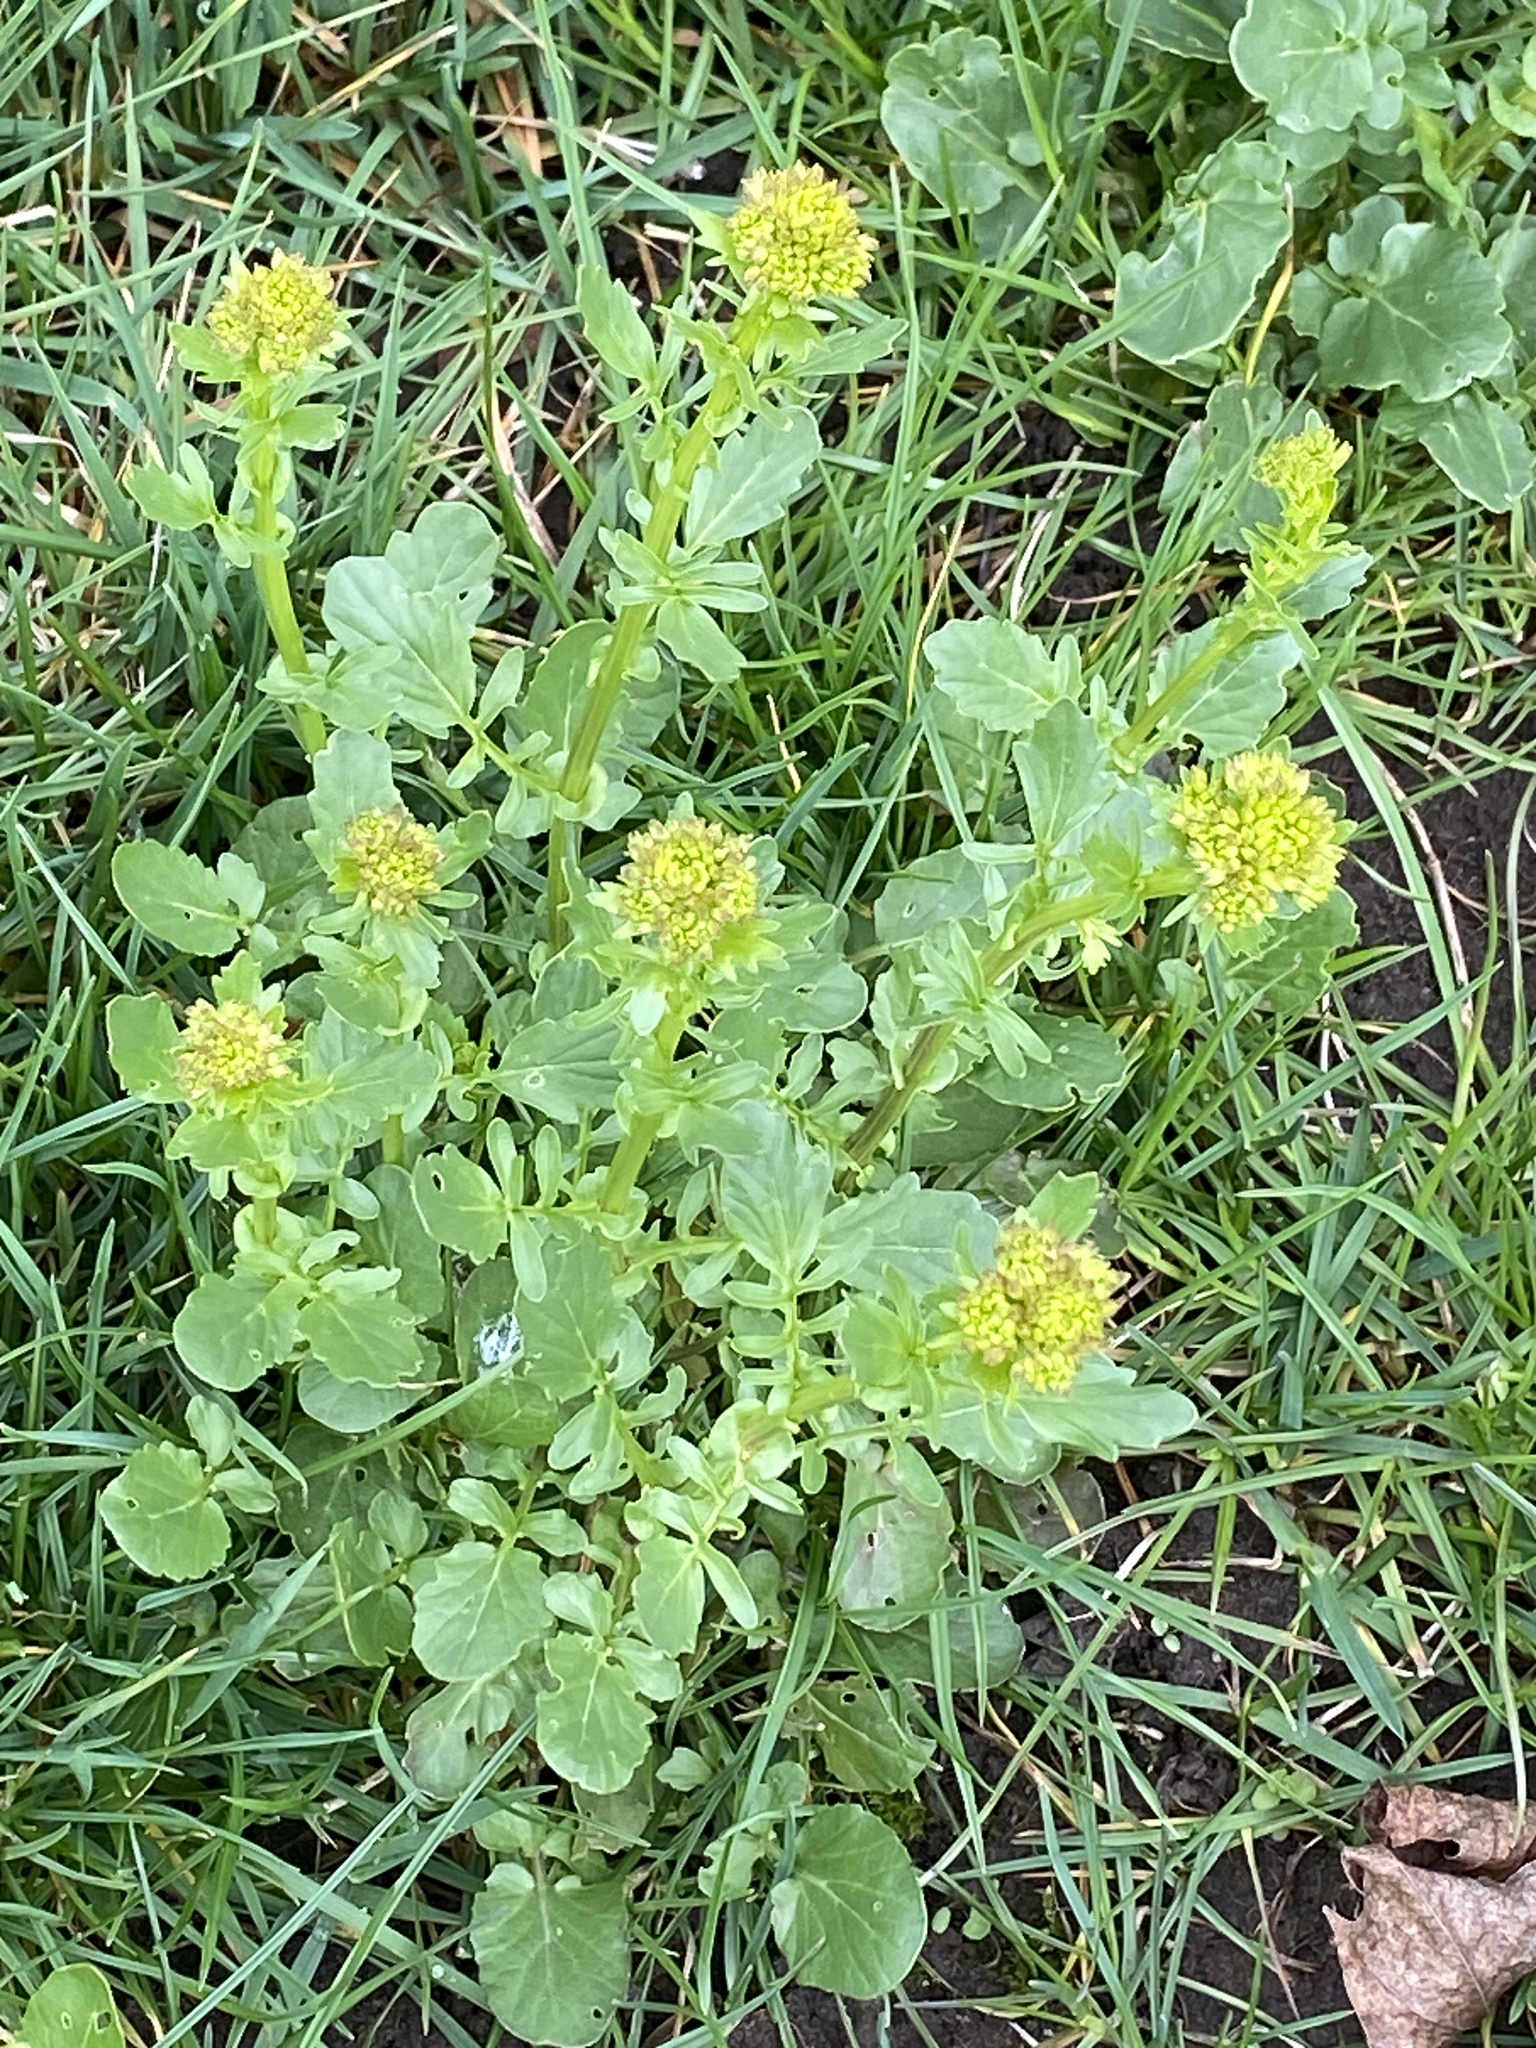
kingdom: Plantae
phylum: Tracheophyta
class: Magnoliopsida
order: Brassicales
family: Brassicaceae
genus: Barbarea
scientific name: Barbarea vulgaris
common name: Cressy-greens
